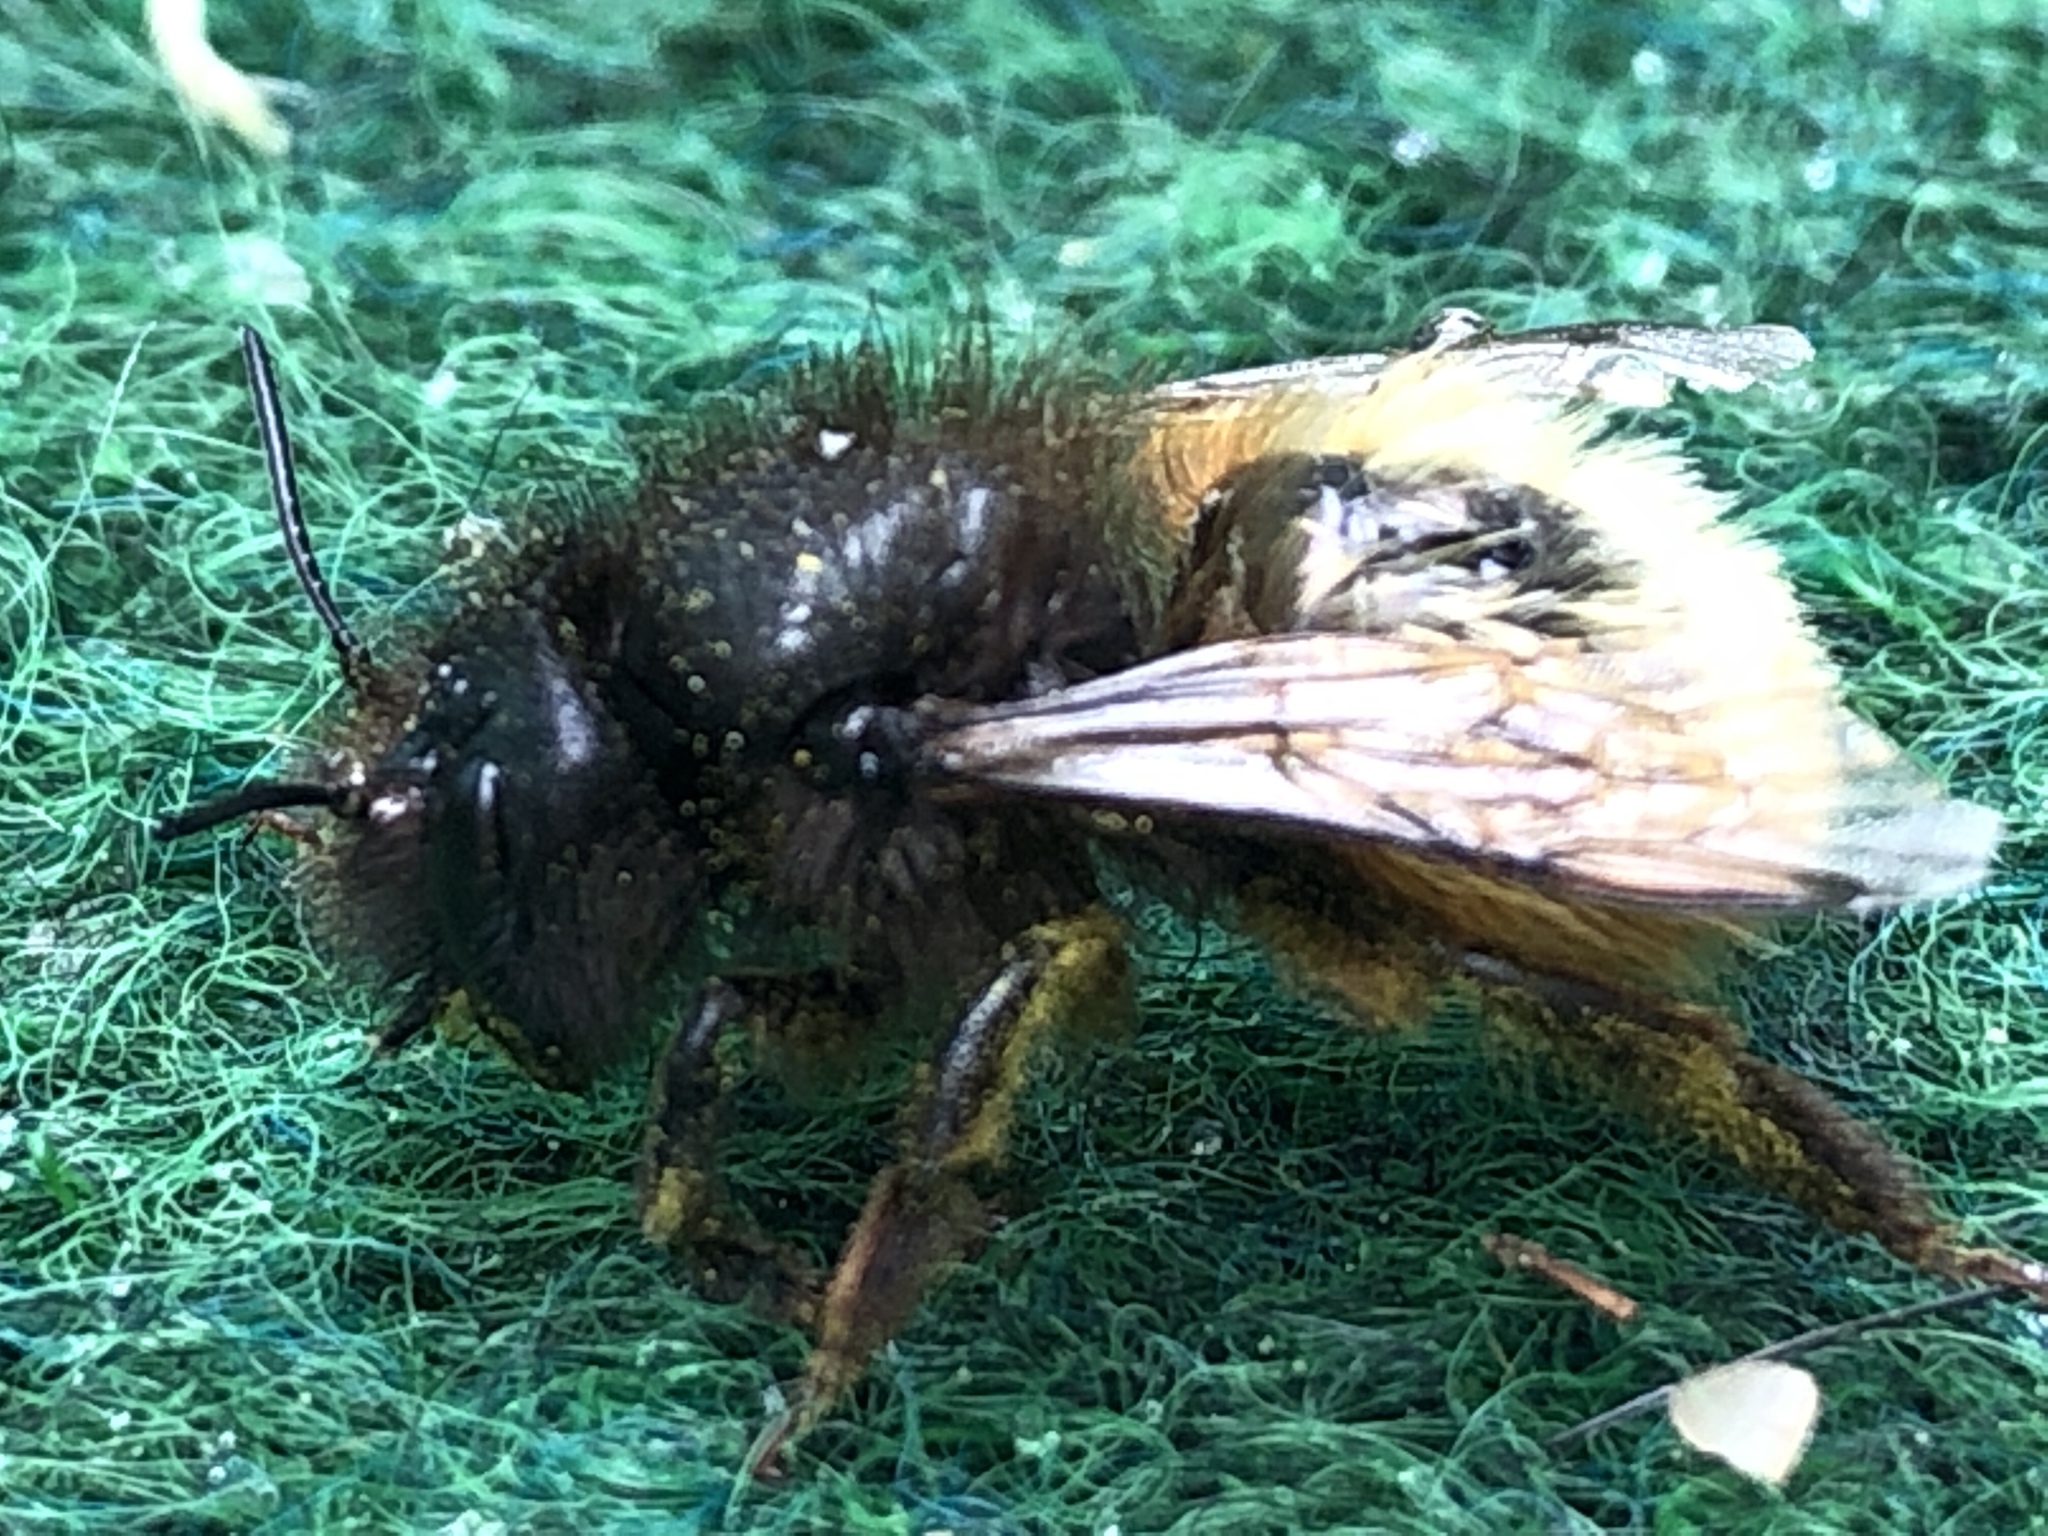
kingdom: Animalia
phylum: Arthropoda
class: Insecta
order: Hymenoptera
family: Megachilidae
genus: Osmia
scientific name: Osmia cornuta
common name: Mason bee
